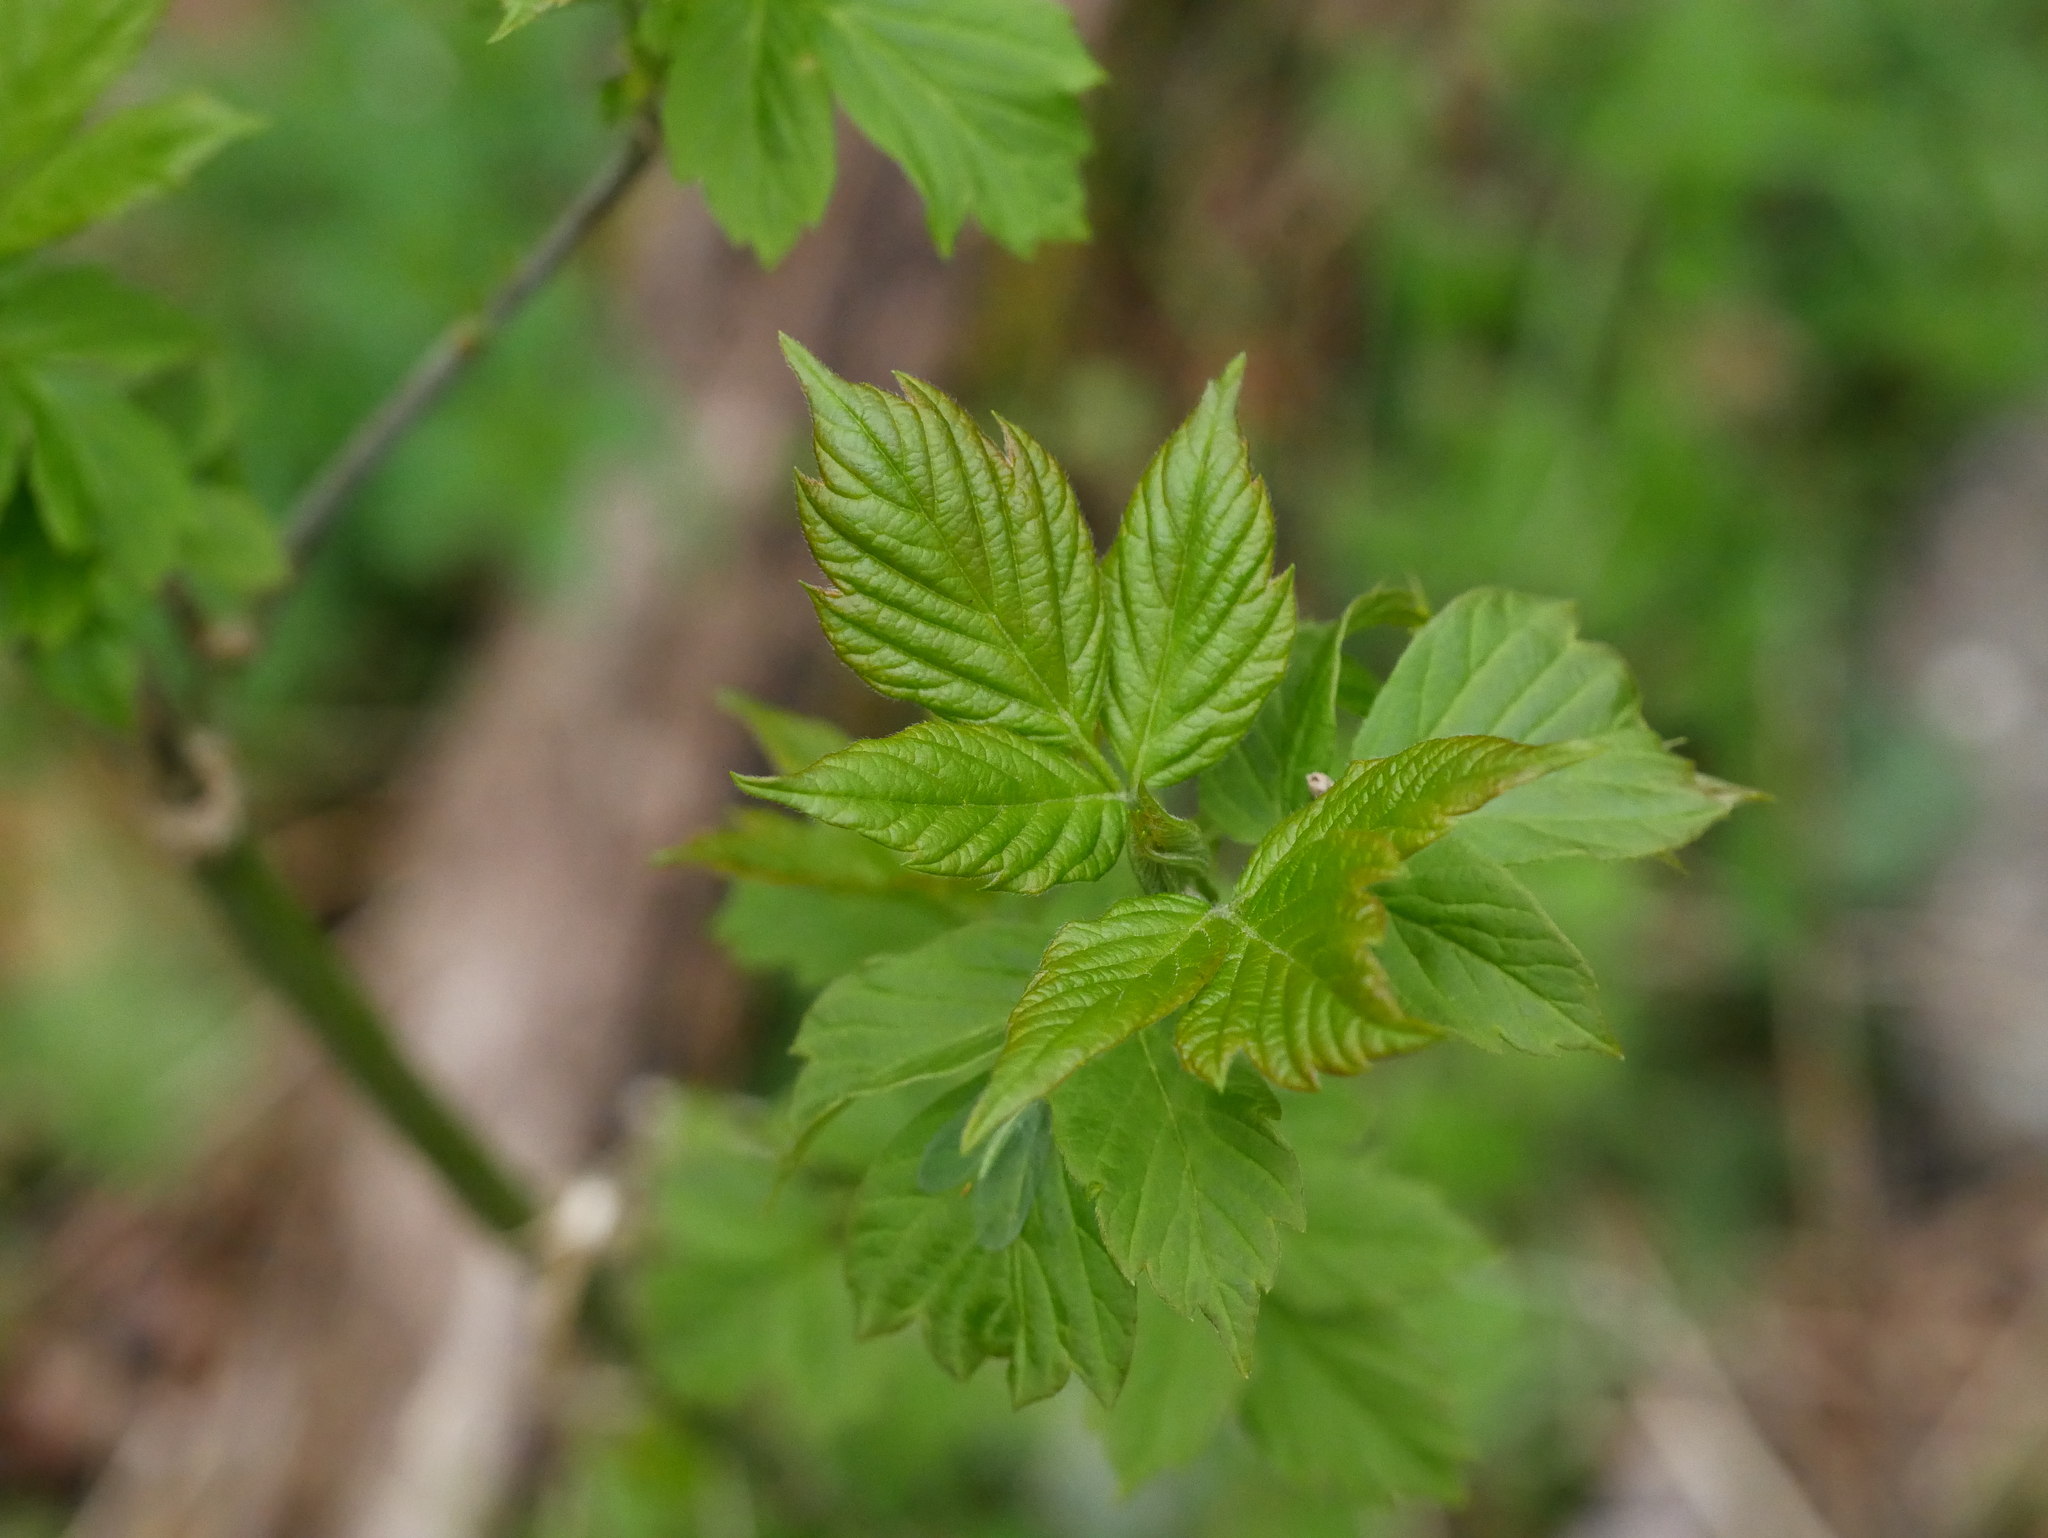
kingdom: Plantae
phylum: Tracheophyta
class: Magnoliopsida
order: Sapindales
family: Sapindaceae
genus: Acer
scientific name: Acer negundo
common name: Ashleaf maple
